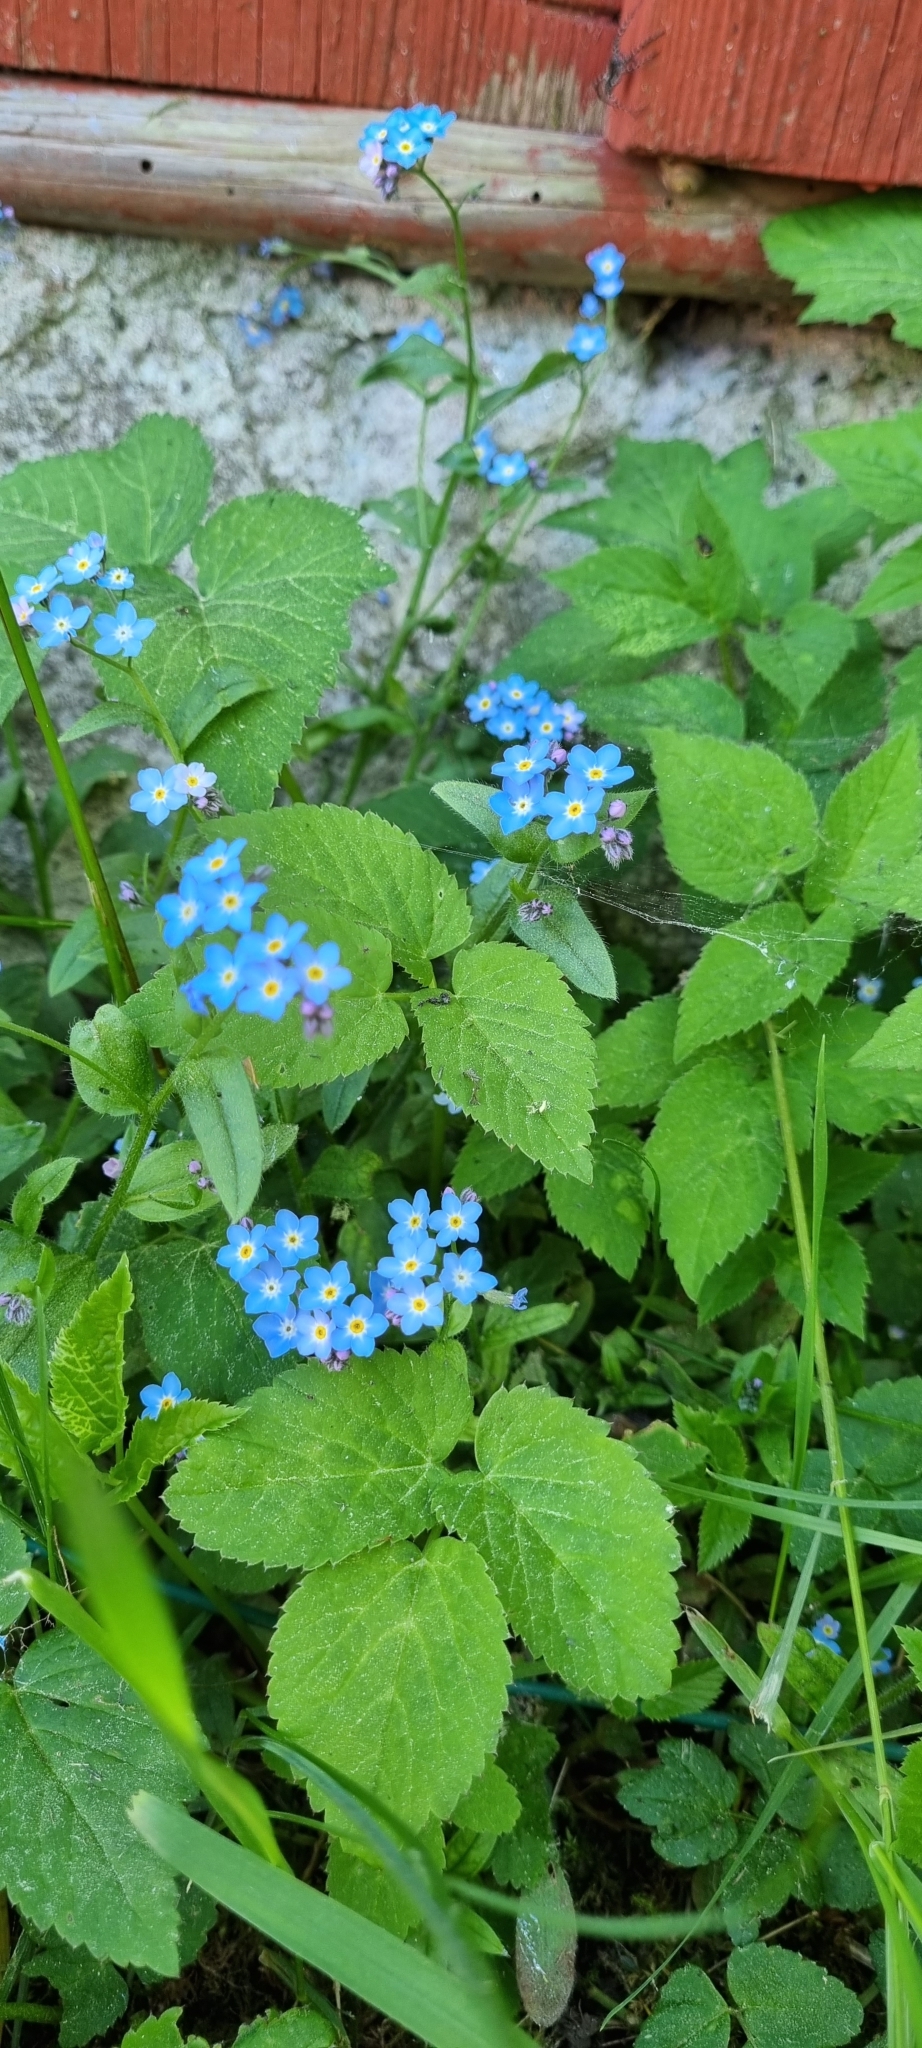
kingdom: Plantae
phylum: Tracheophyta
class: Magnoliopsida
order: Boraginales
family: Boraginaceae
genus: Myosotis
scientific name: Myosotis sylvatica
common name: Wood forget-me-not
